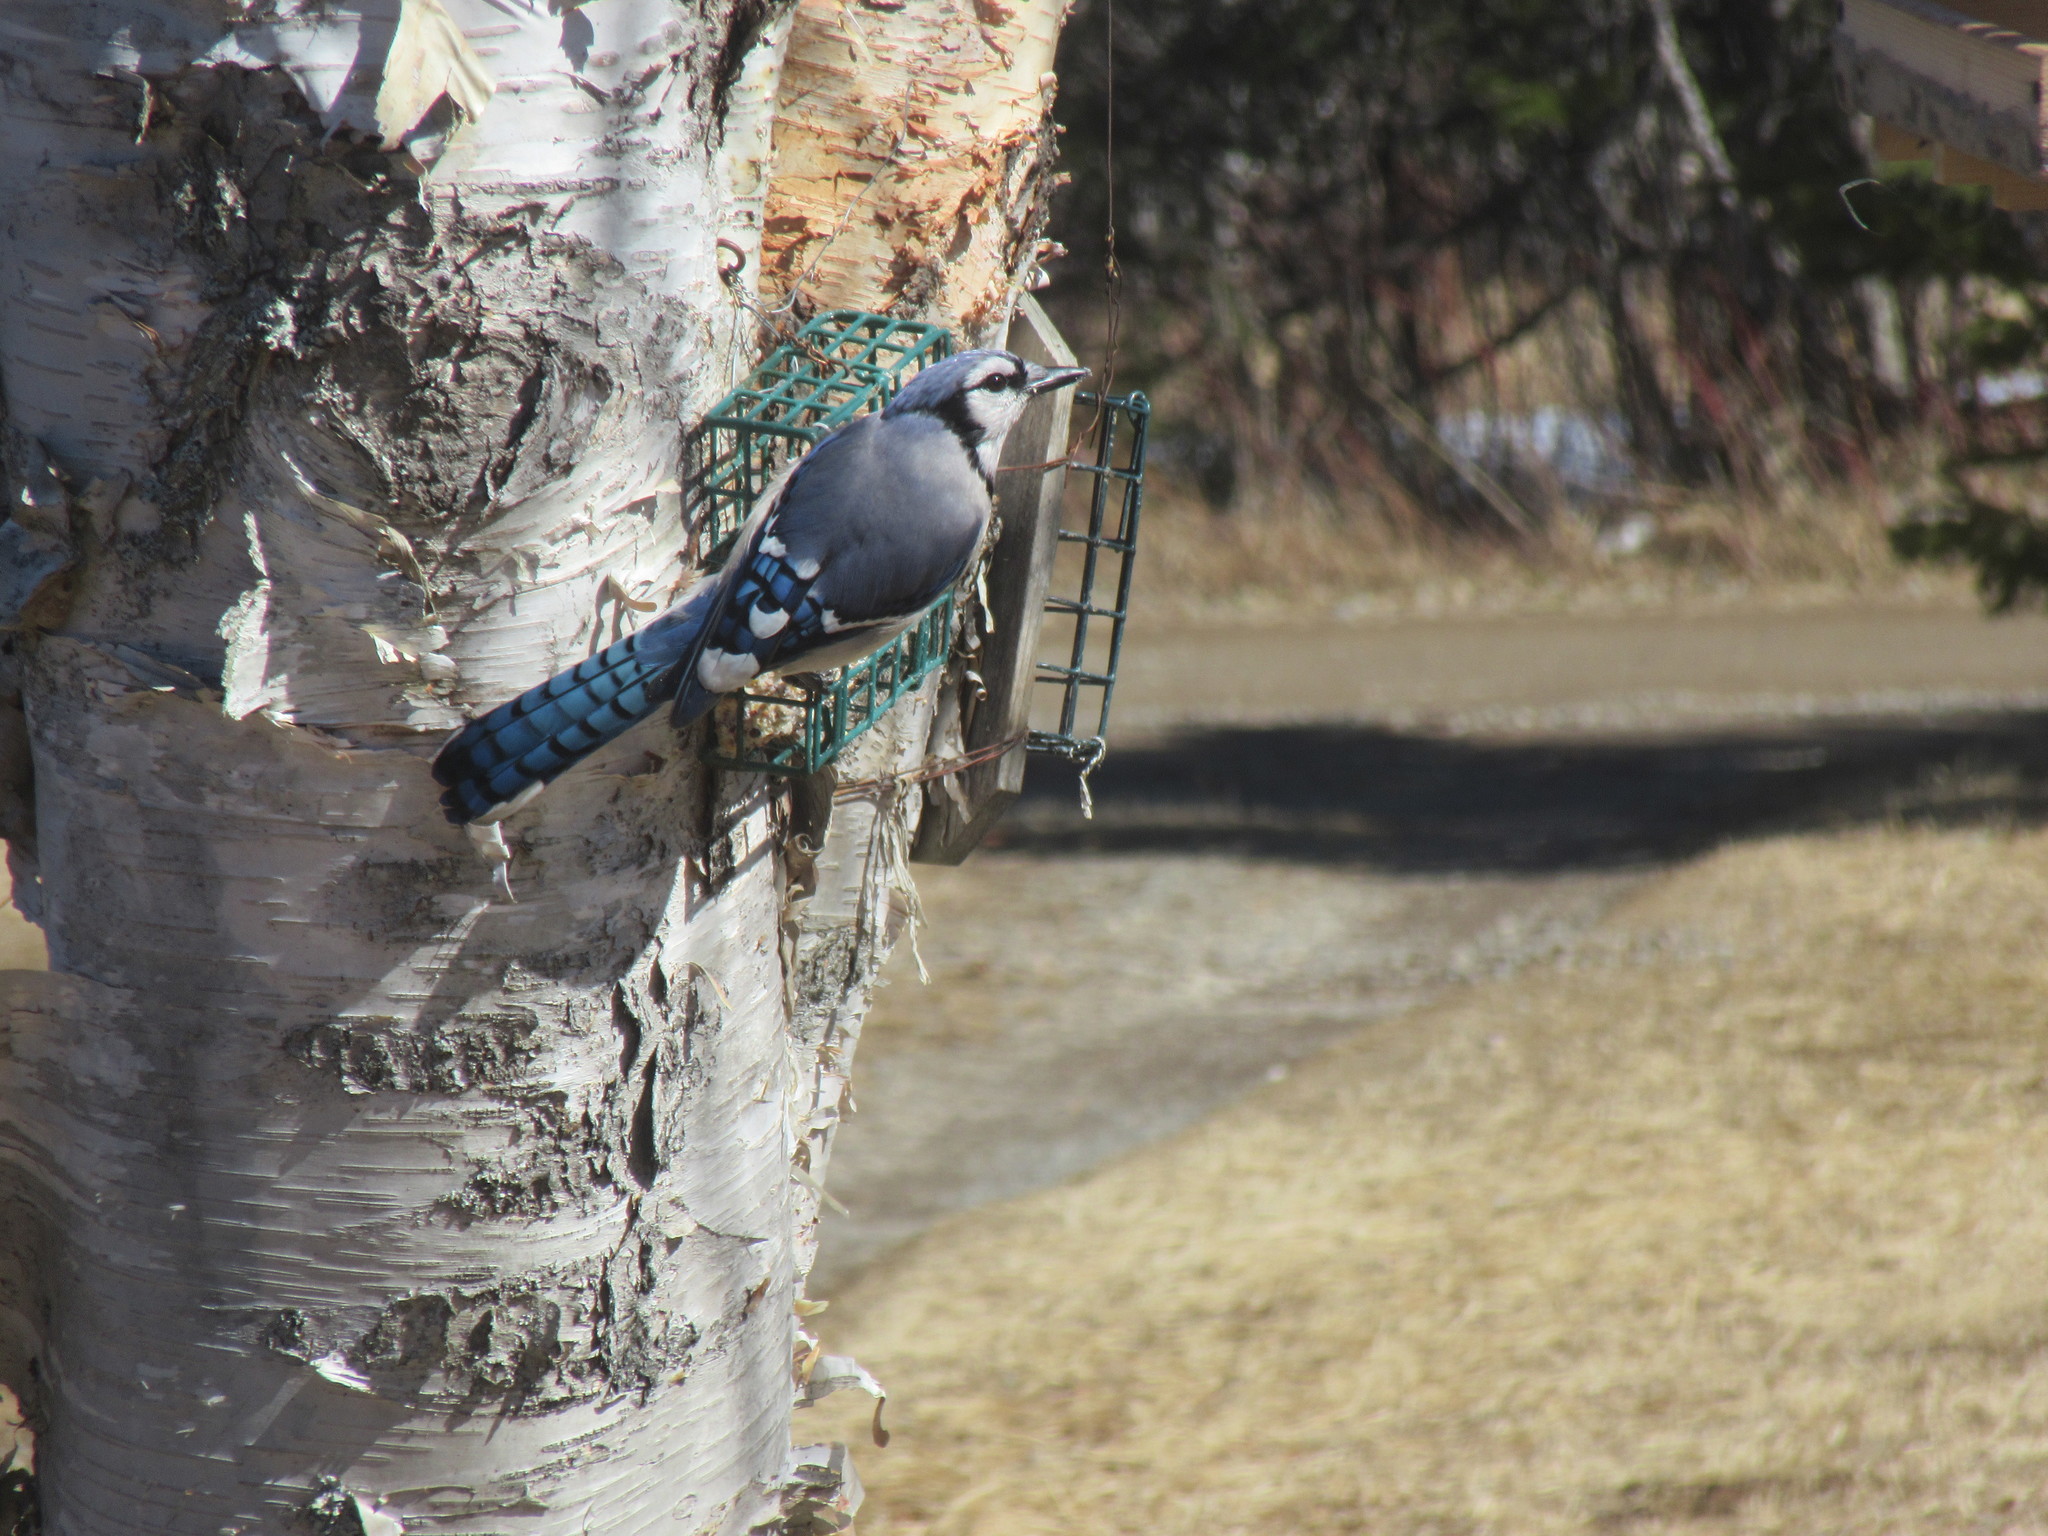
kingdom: Animalia
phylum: Chordata
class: Aves
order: Passeriformes
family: Corvidae
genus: Cyanocitta
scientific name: Cyanocitta cristata
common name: Blue jay
